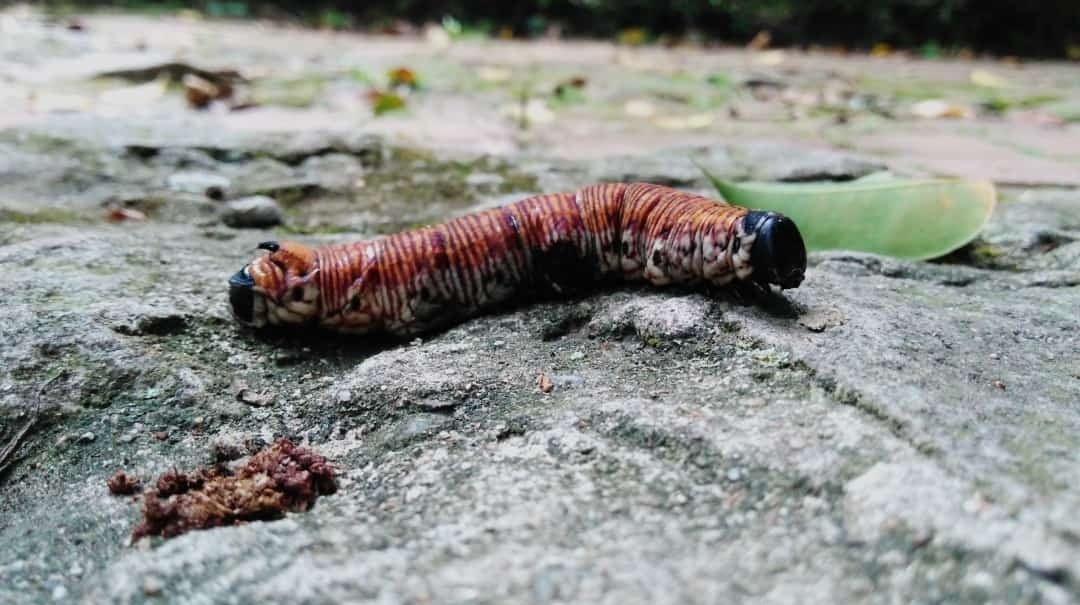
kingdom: Animalia
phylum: Arthropoda
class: Insecta
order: Lepidoptera
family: Sphingidae
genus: Pachylia
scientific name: Pachylia ficus
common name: Fig sphinx
